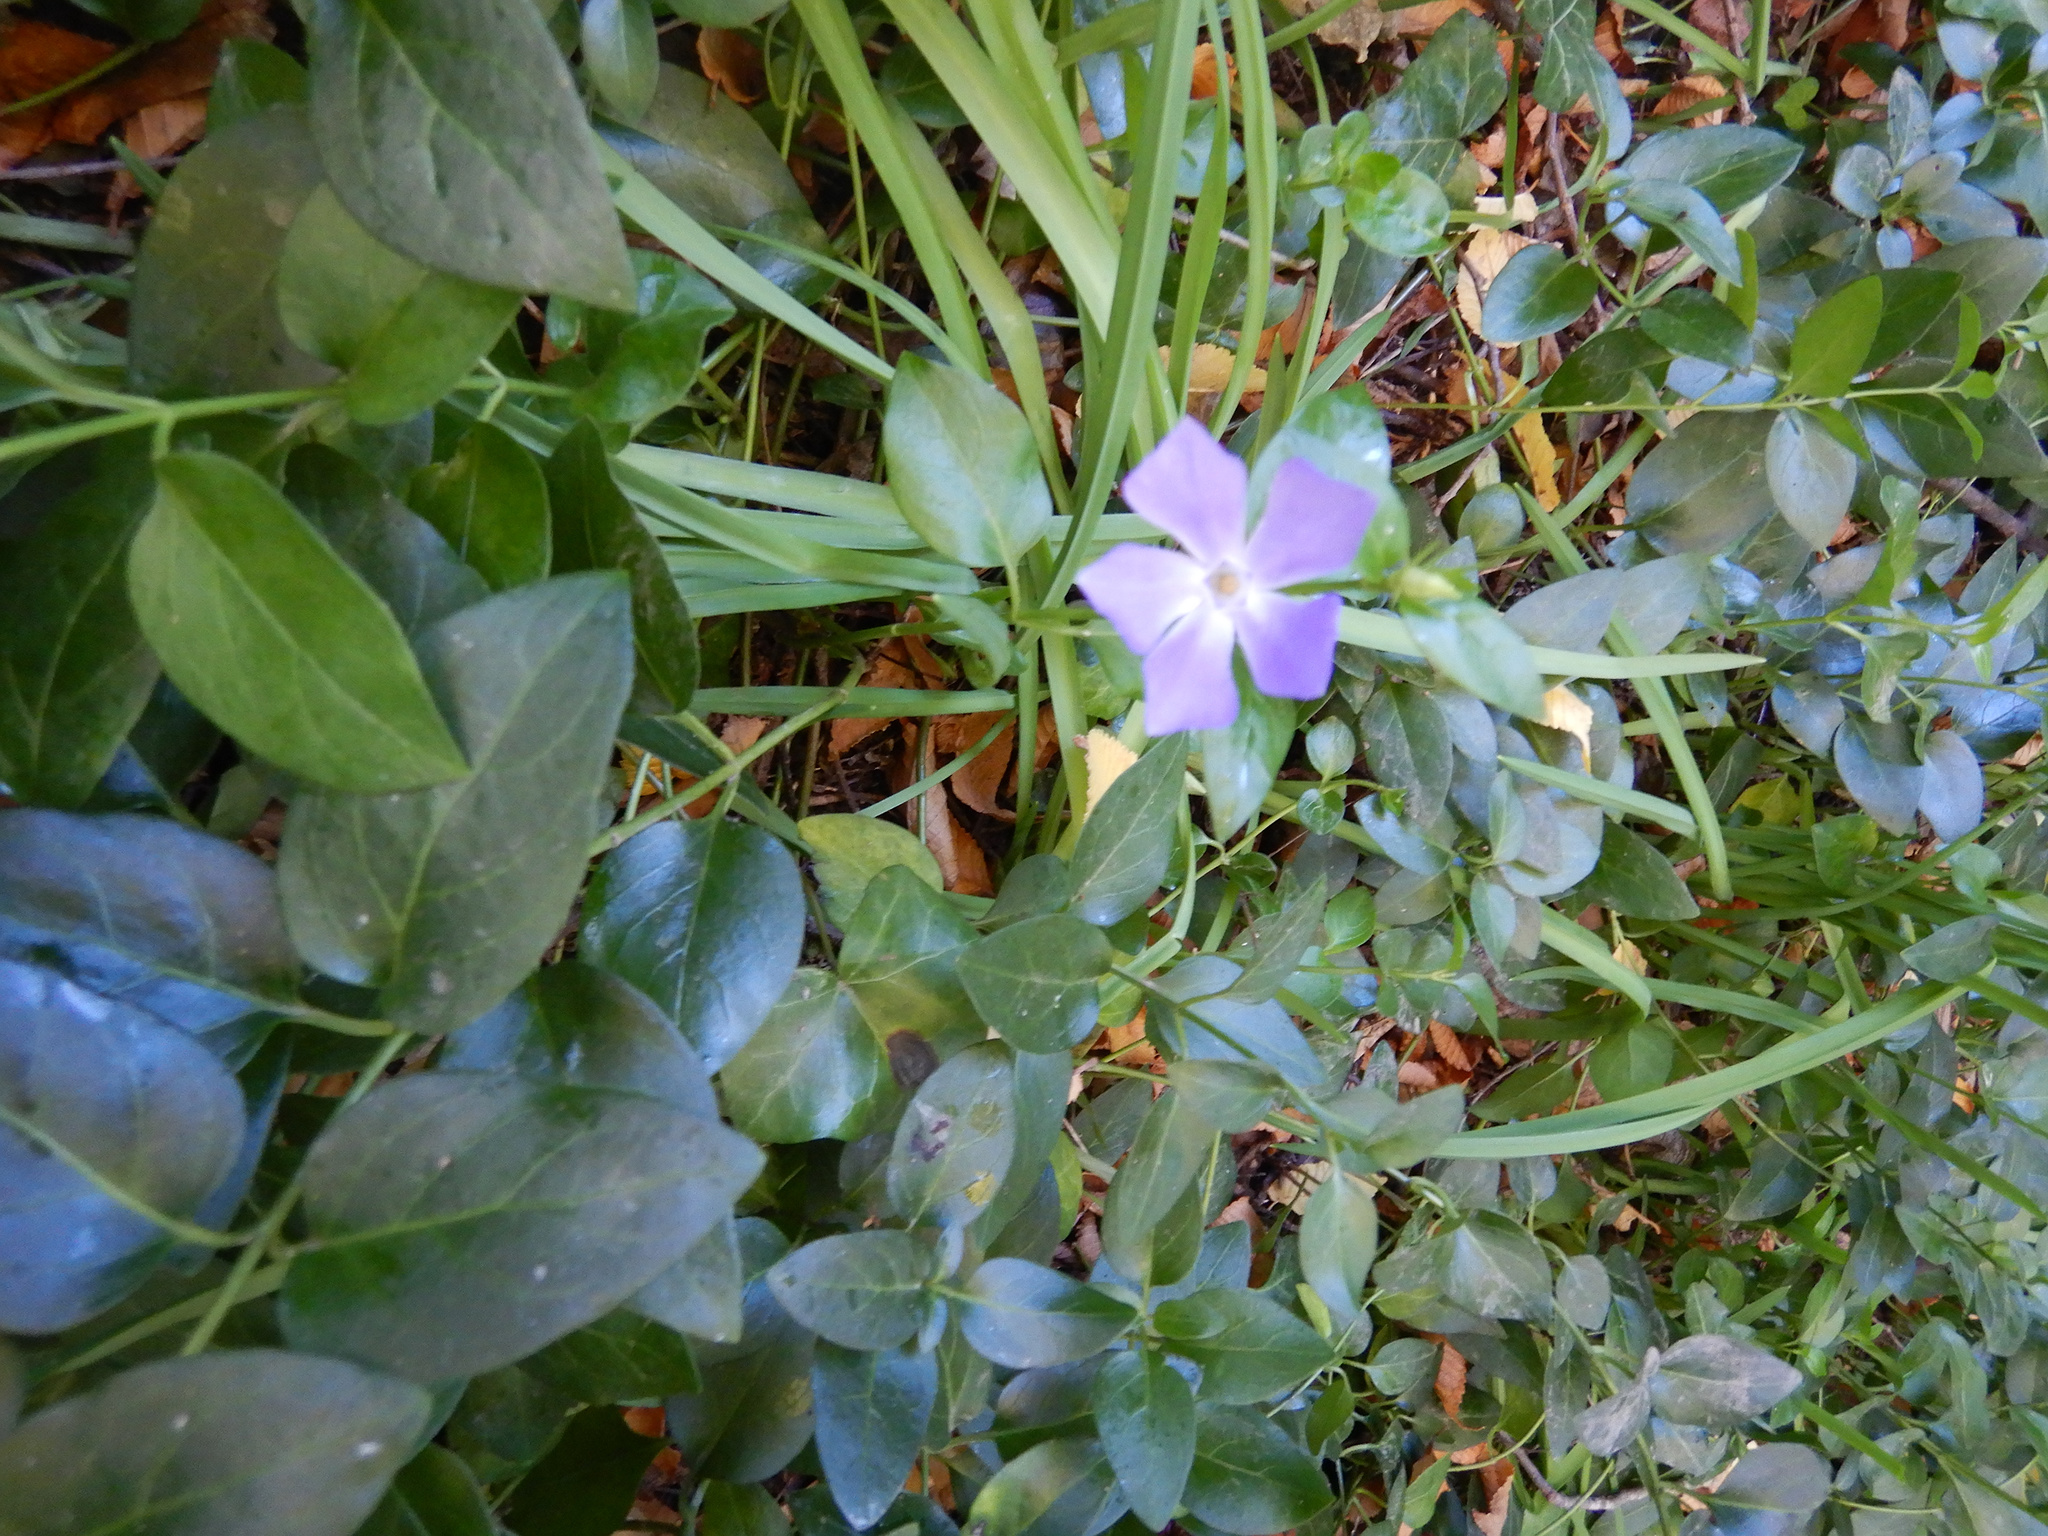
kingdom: Plantae
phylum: Tracheophyta
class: Magnoliopsida
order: Gentianales
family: Apocynaceae
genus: Vinca
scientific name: Vinca major
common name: Greater periwinkle
